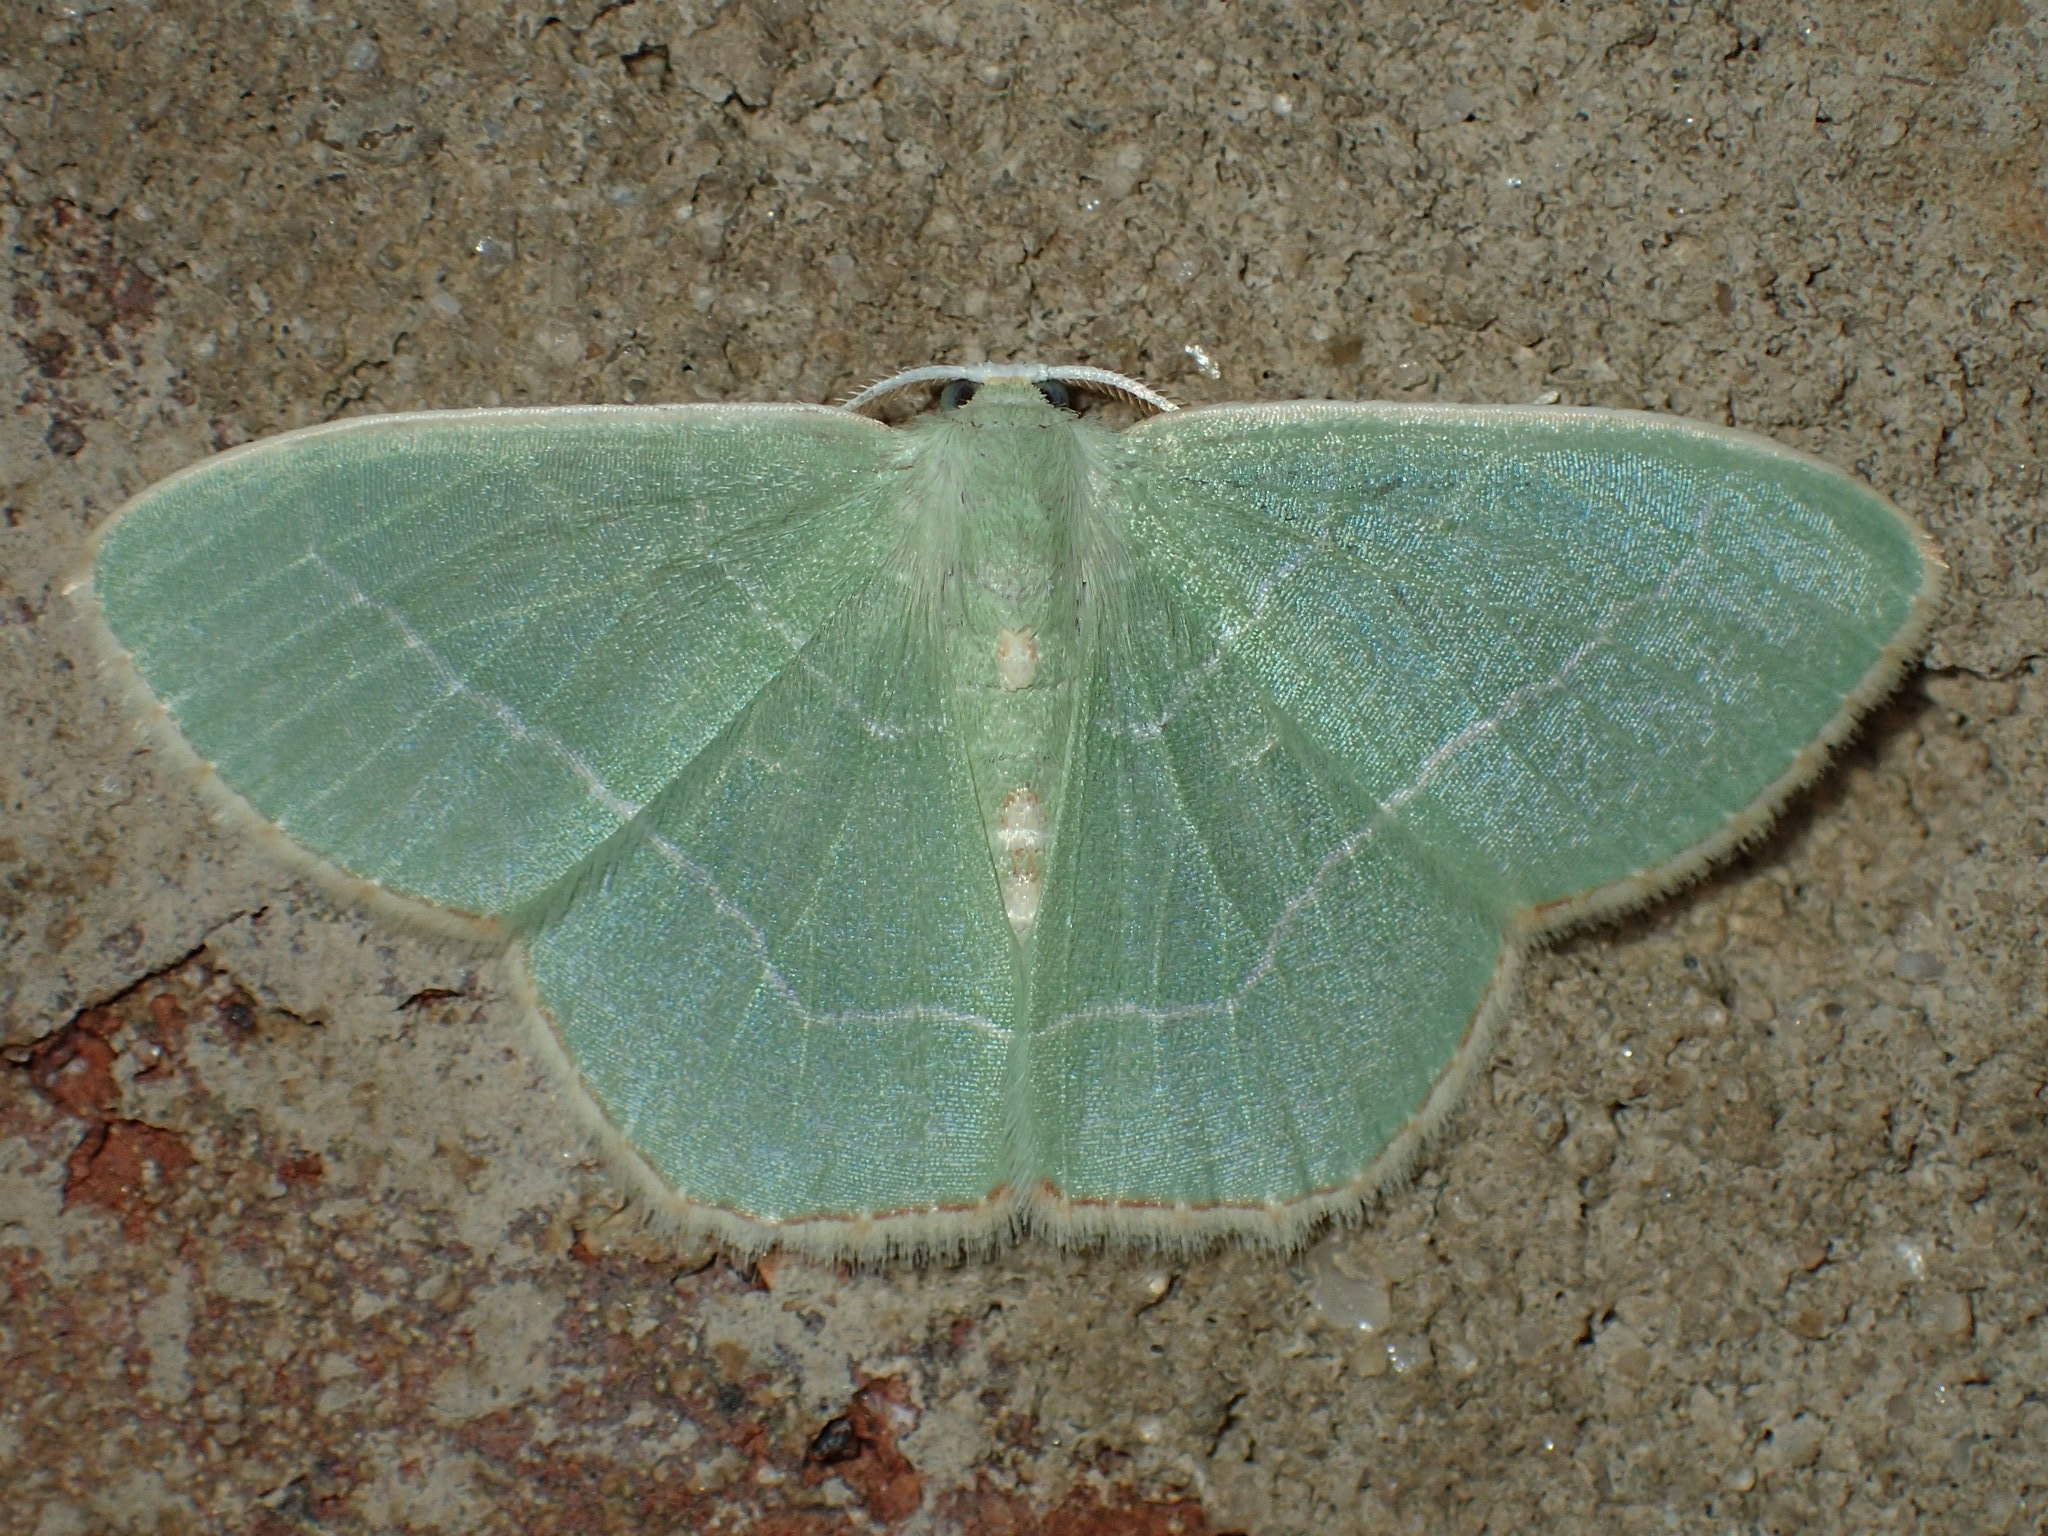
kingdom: Animalia
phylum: Arthropoda
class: Insecta
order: Lepidoptera
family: Geometridae
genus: Nemoria
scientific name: Nemoria bistriaria
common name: Red-fringed emerald
